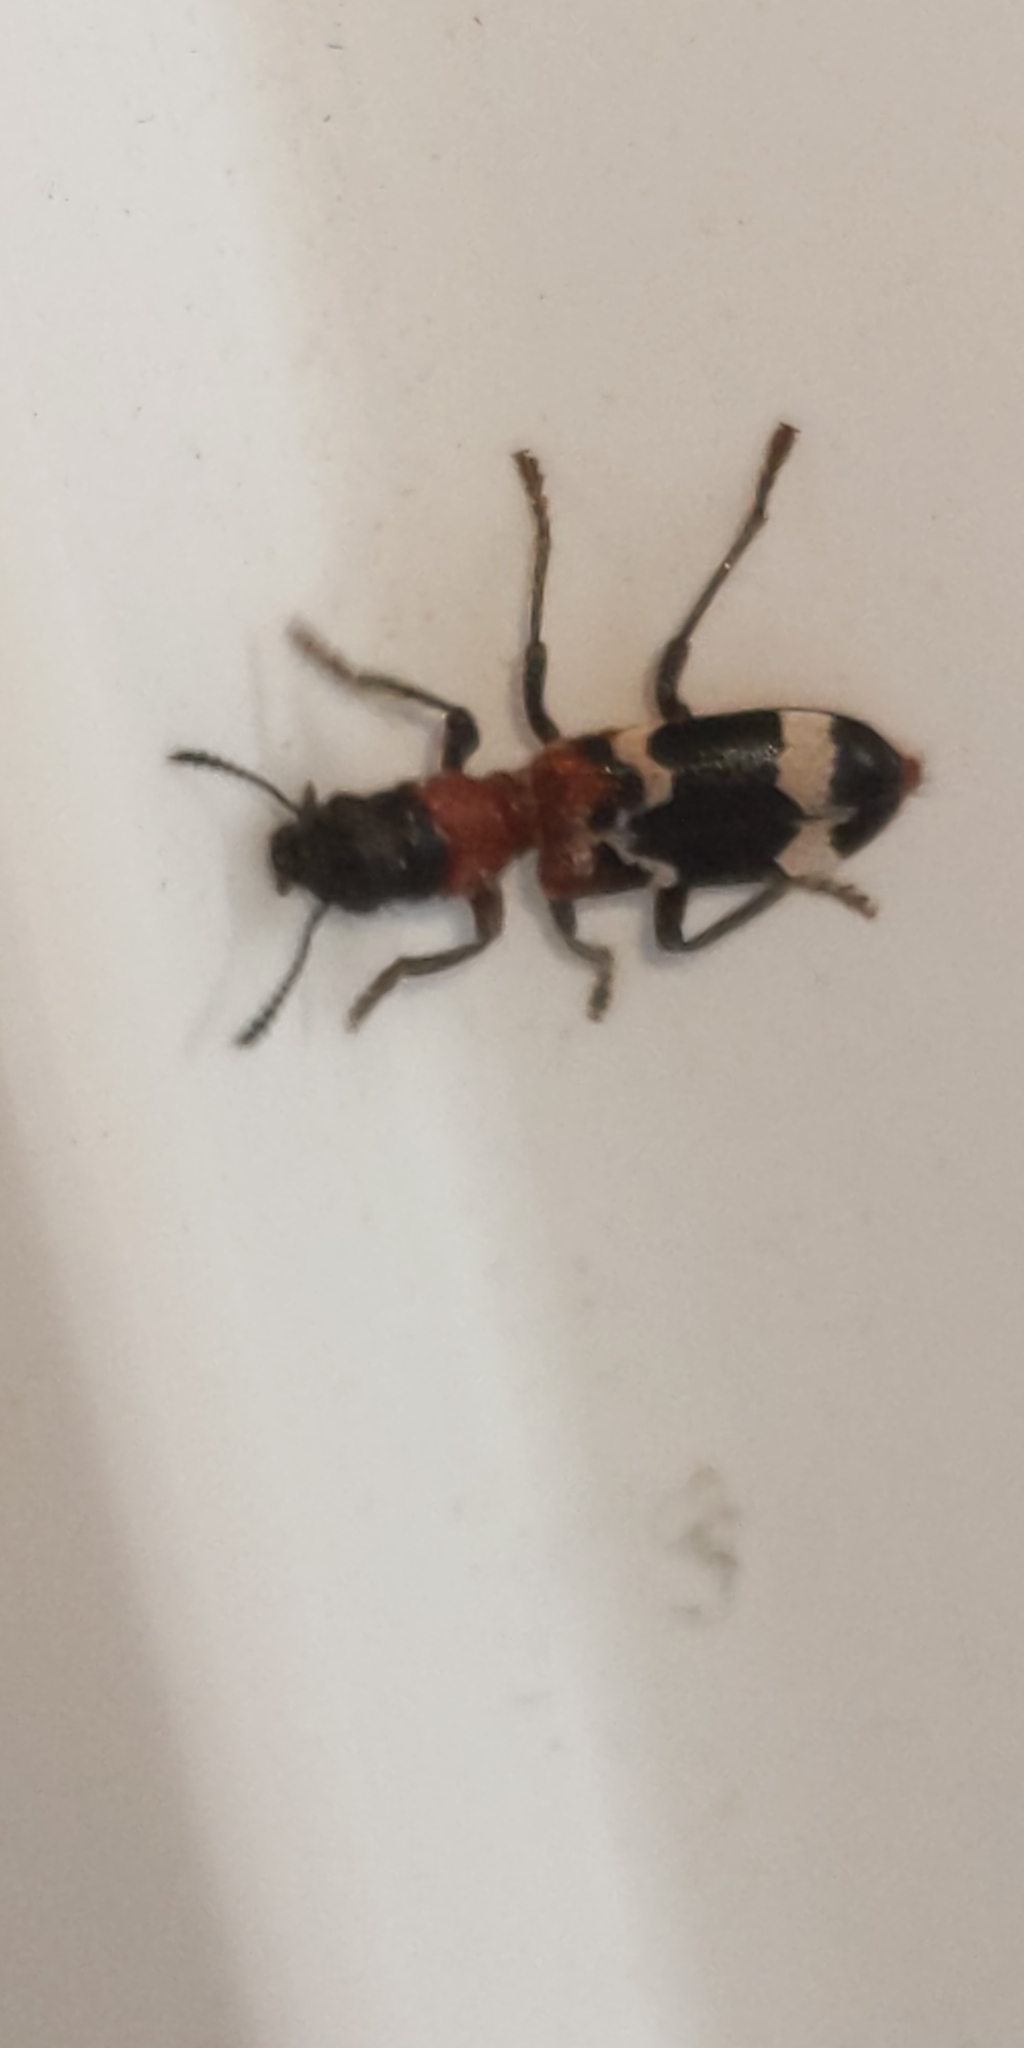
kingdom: Animalia
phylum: Arthropoda
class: Insecta
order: Coleoptera
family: Cleridae
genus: Thanasimus
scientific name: Thanasimus formicarius
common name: Ant beetle
